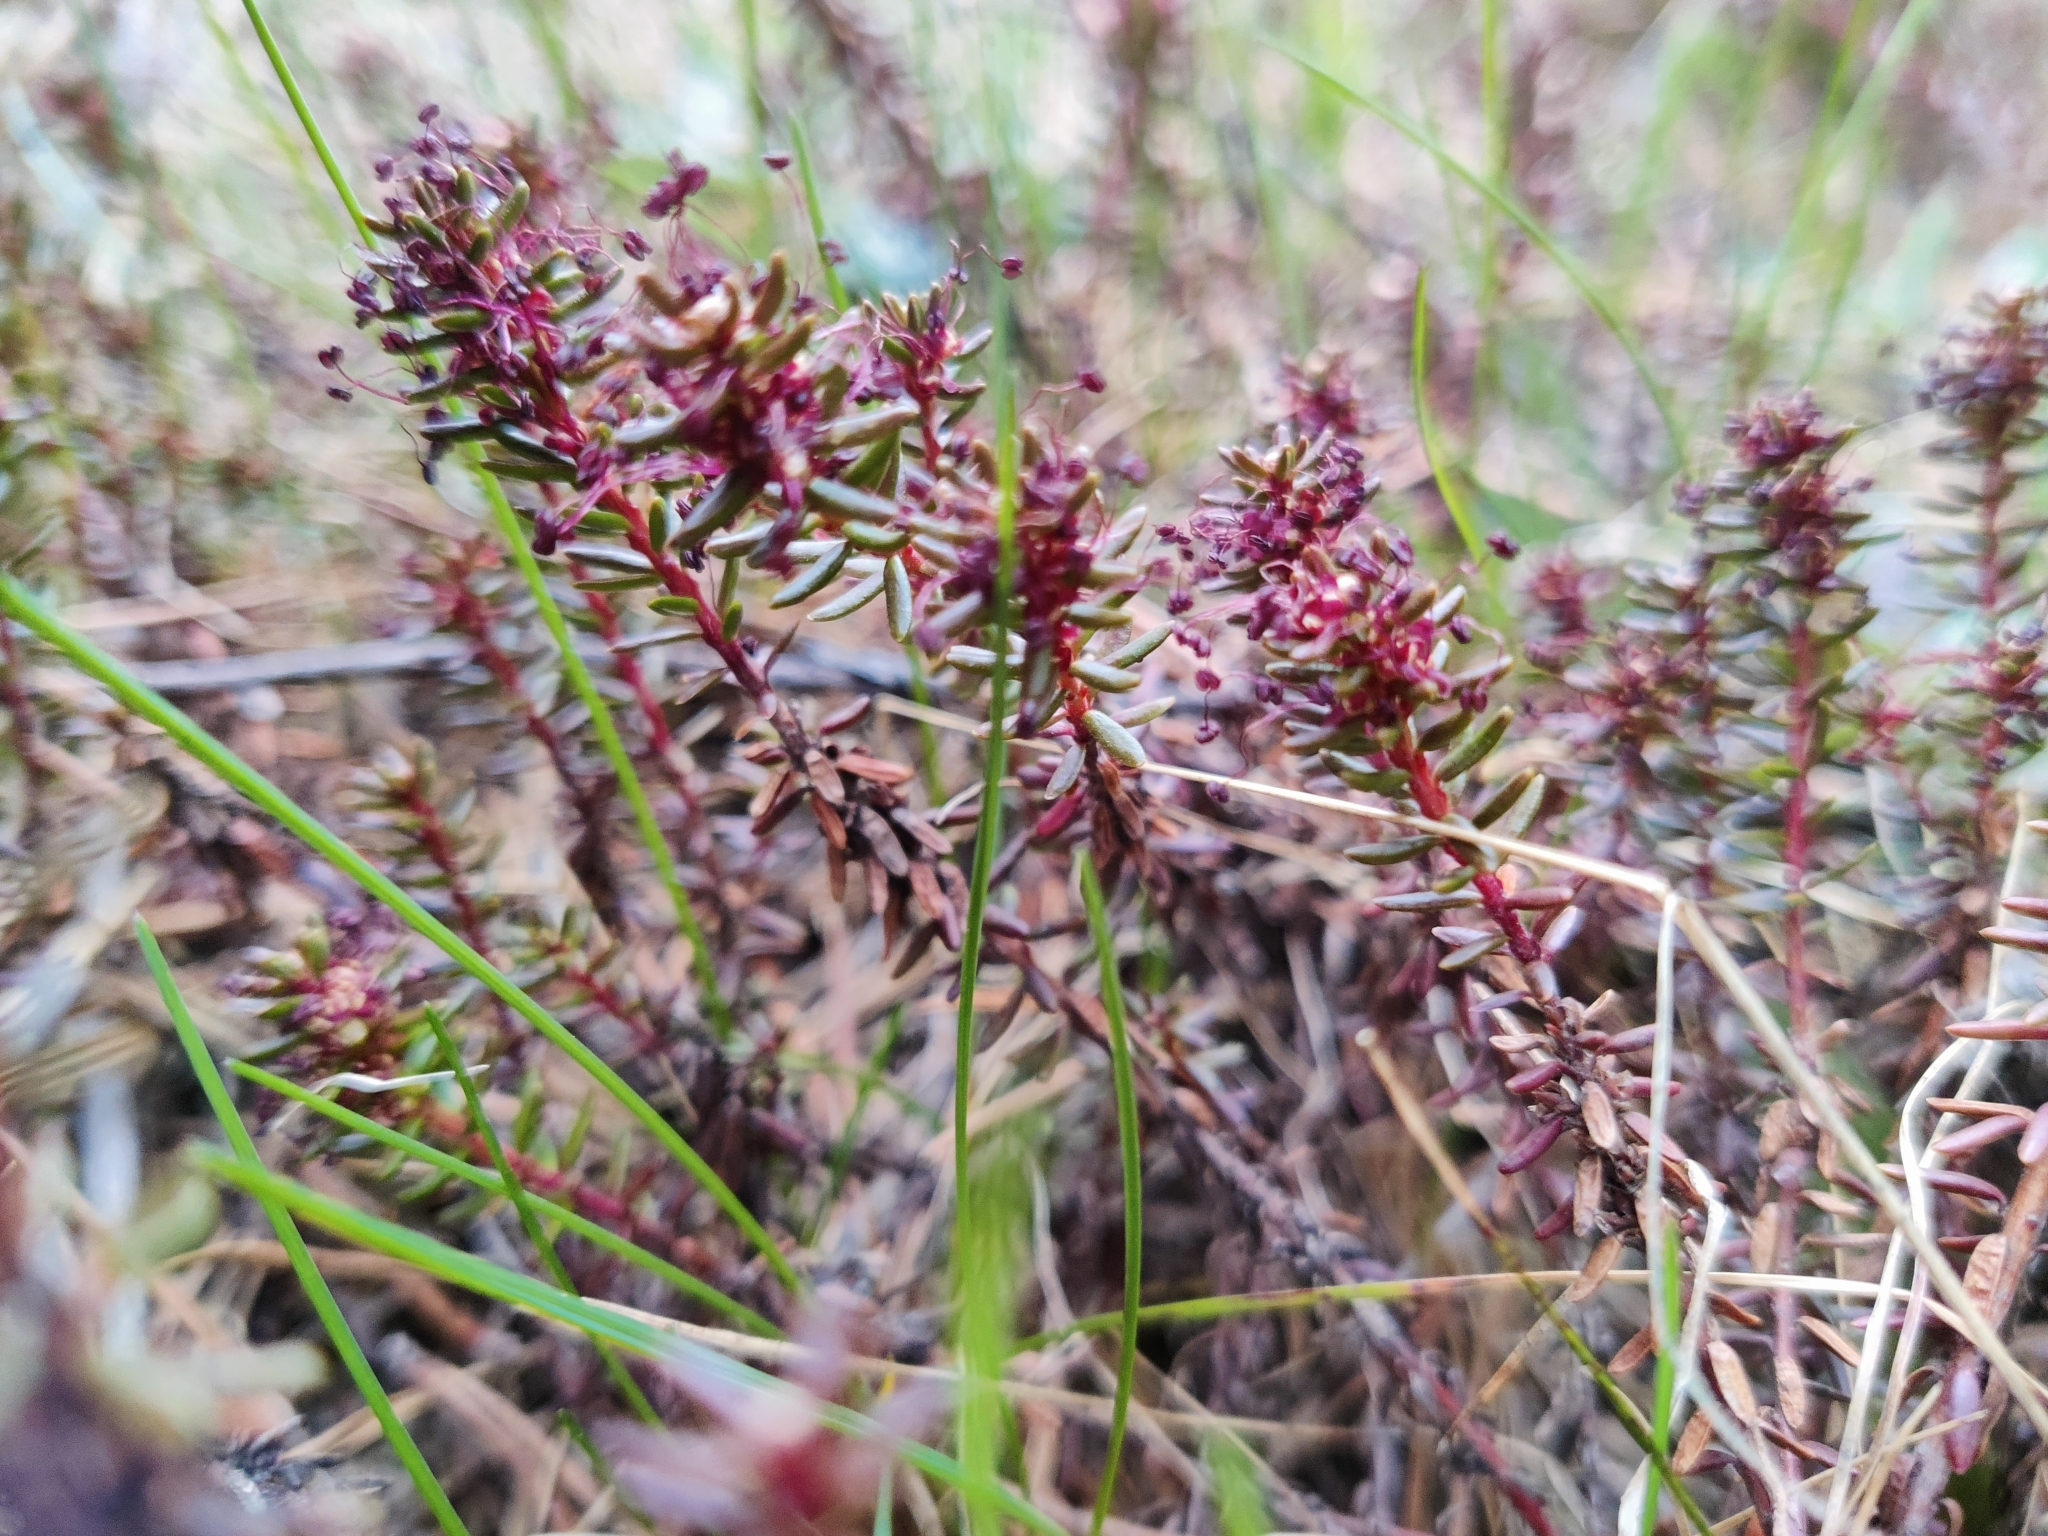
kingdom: Plantae
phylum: Tracheophyta
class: Magnoliopsida
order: Ericales
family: Ericaceae
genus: Empetrum
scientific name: Empetrum nigrum
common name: Black crowberry
